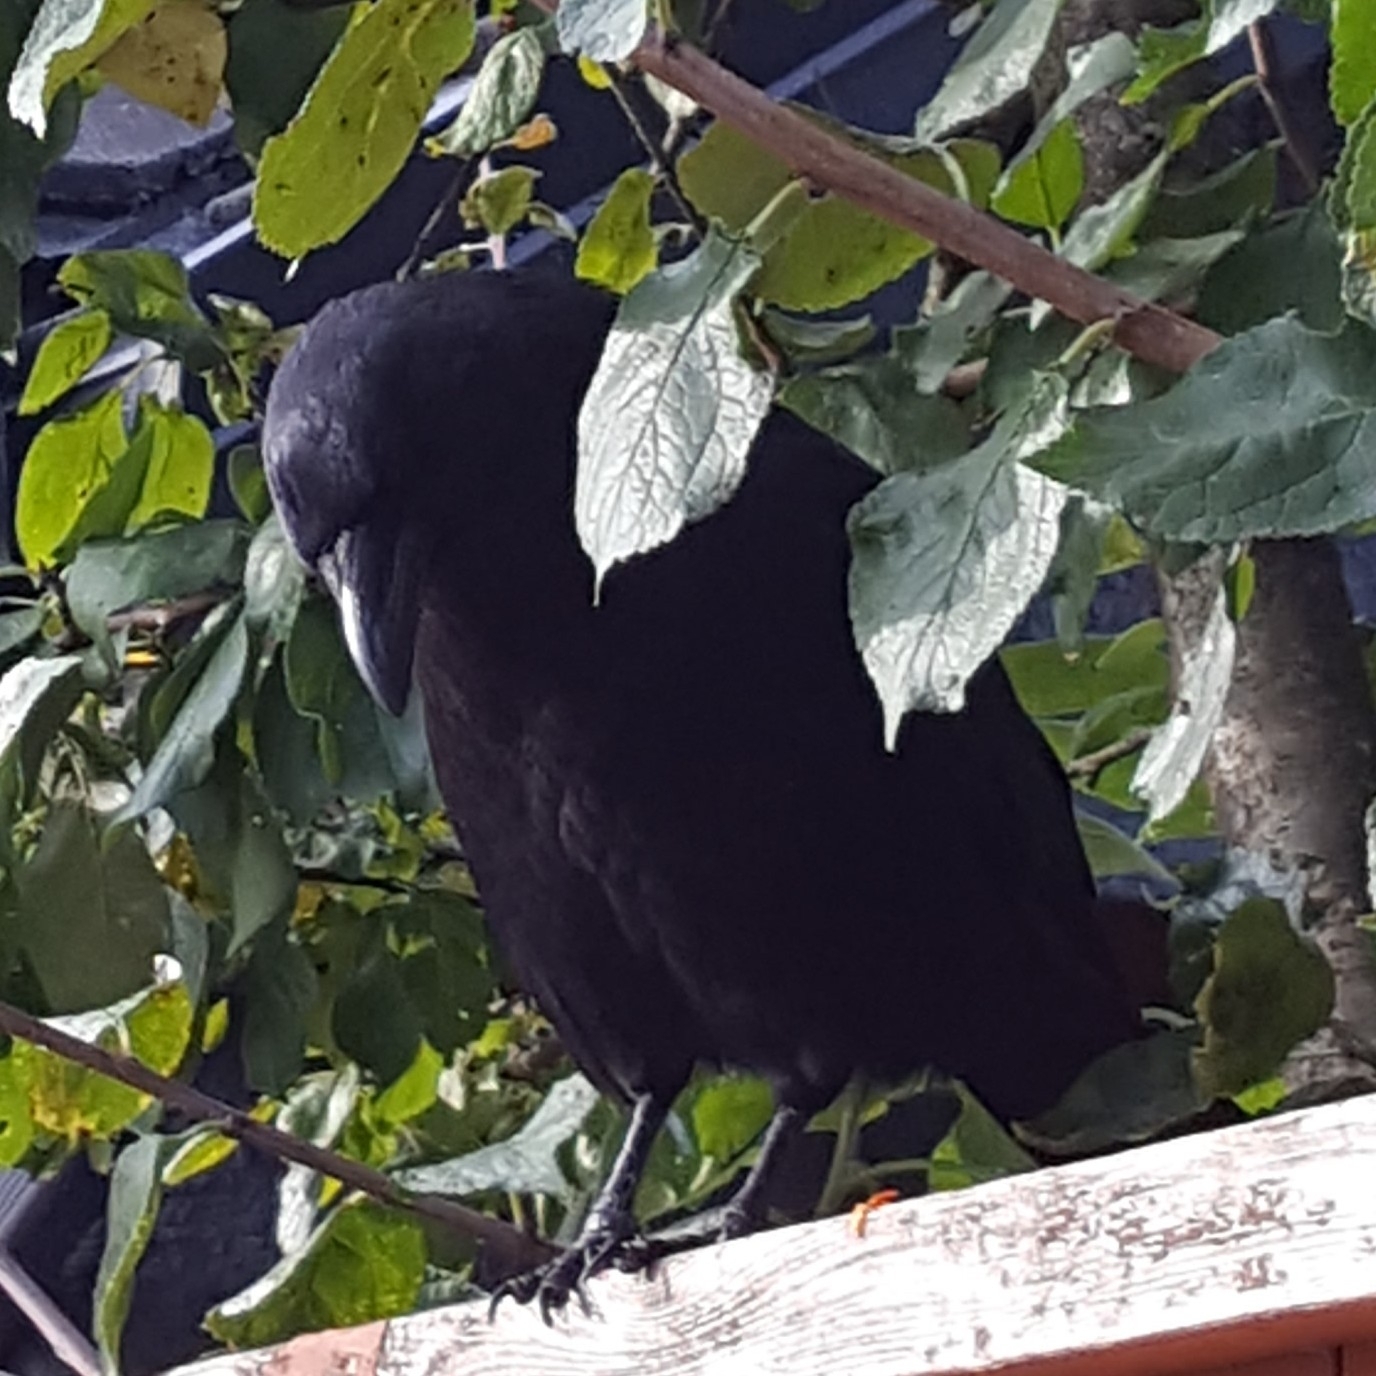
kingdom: Animalia
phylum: Chordata
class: Aves
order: Passeriformes
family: Corvidae
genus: Corvus
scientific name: Corvus brachyrhynchos
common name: American crow
